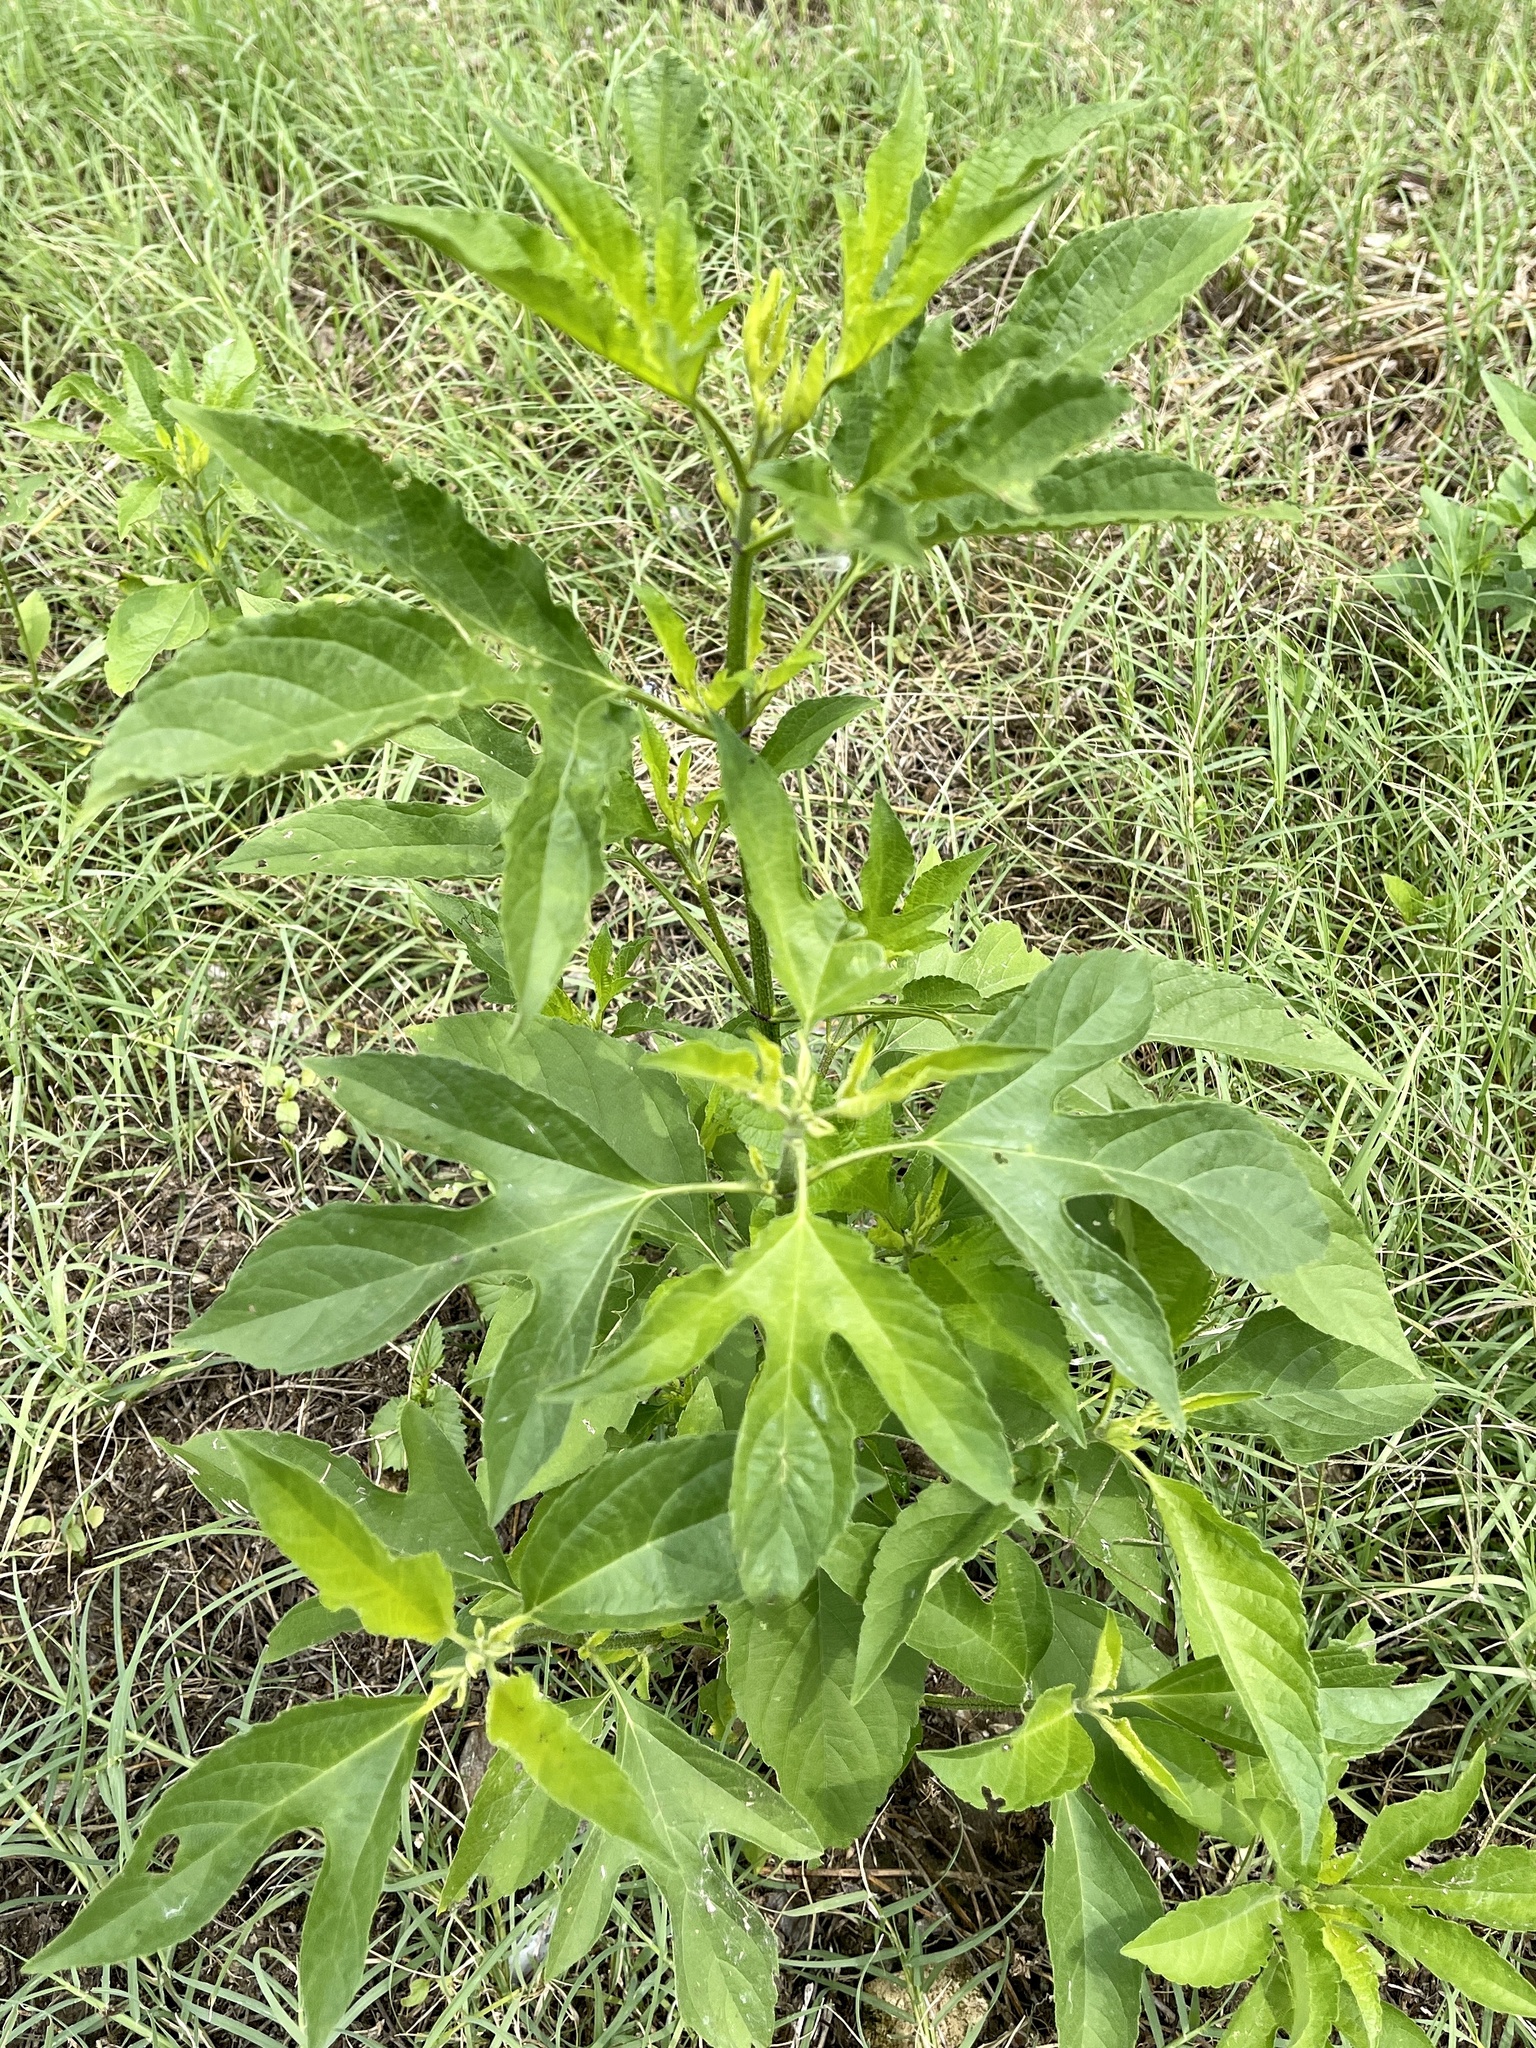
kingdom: Plantae
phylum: Tracheophyta
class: Magnoliopsida
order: Asterales
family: Asteraceae
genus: Ambrosia
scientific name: Ambrosia trifida
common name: Giant ragweed
